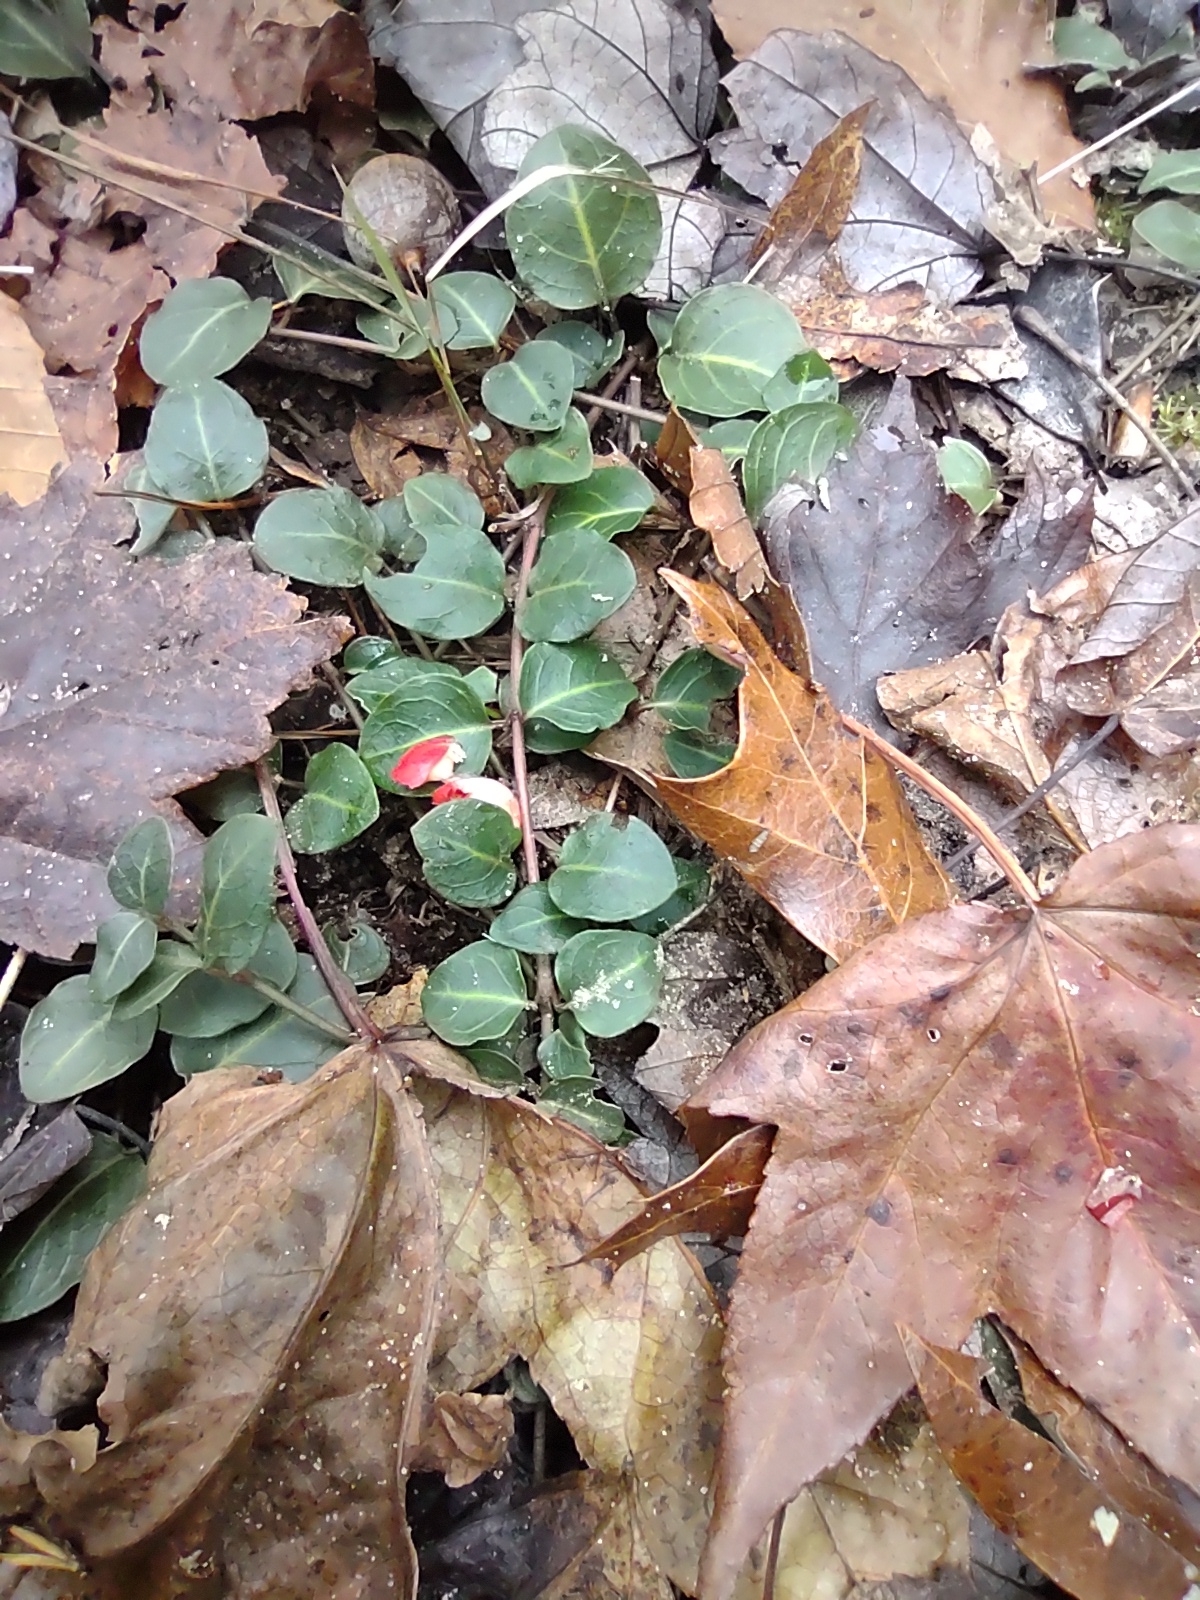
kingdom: Plantae
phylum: Tracheophyta
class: Magnoliopsida
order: Gentianales
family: Rubiaceae
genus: Mitchella
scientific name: Mitchella repens
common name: Partridge-berry
